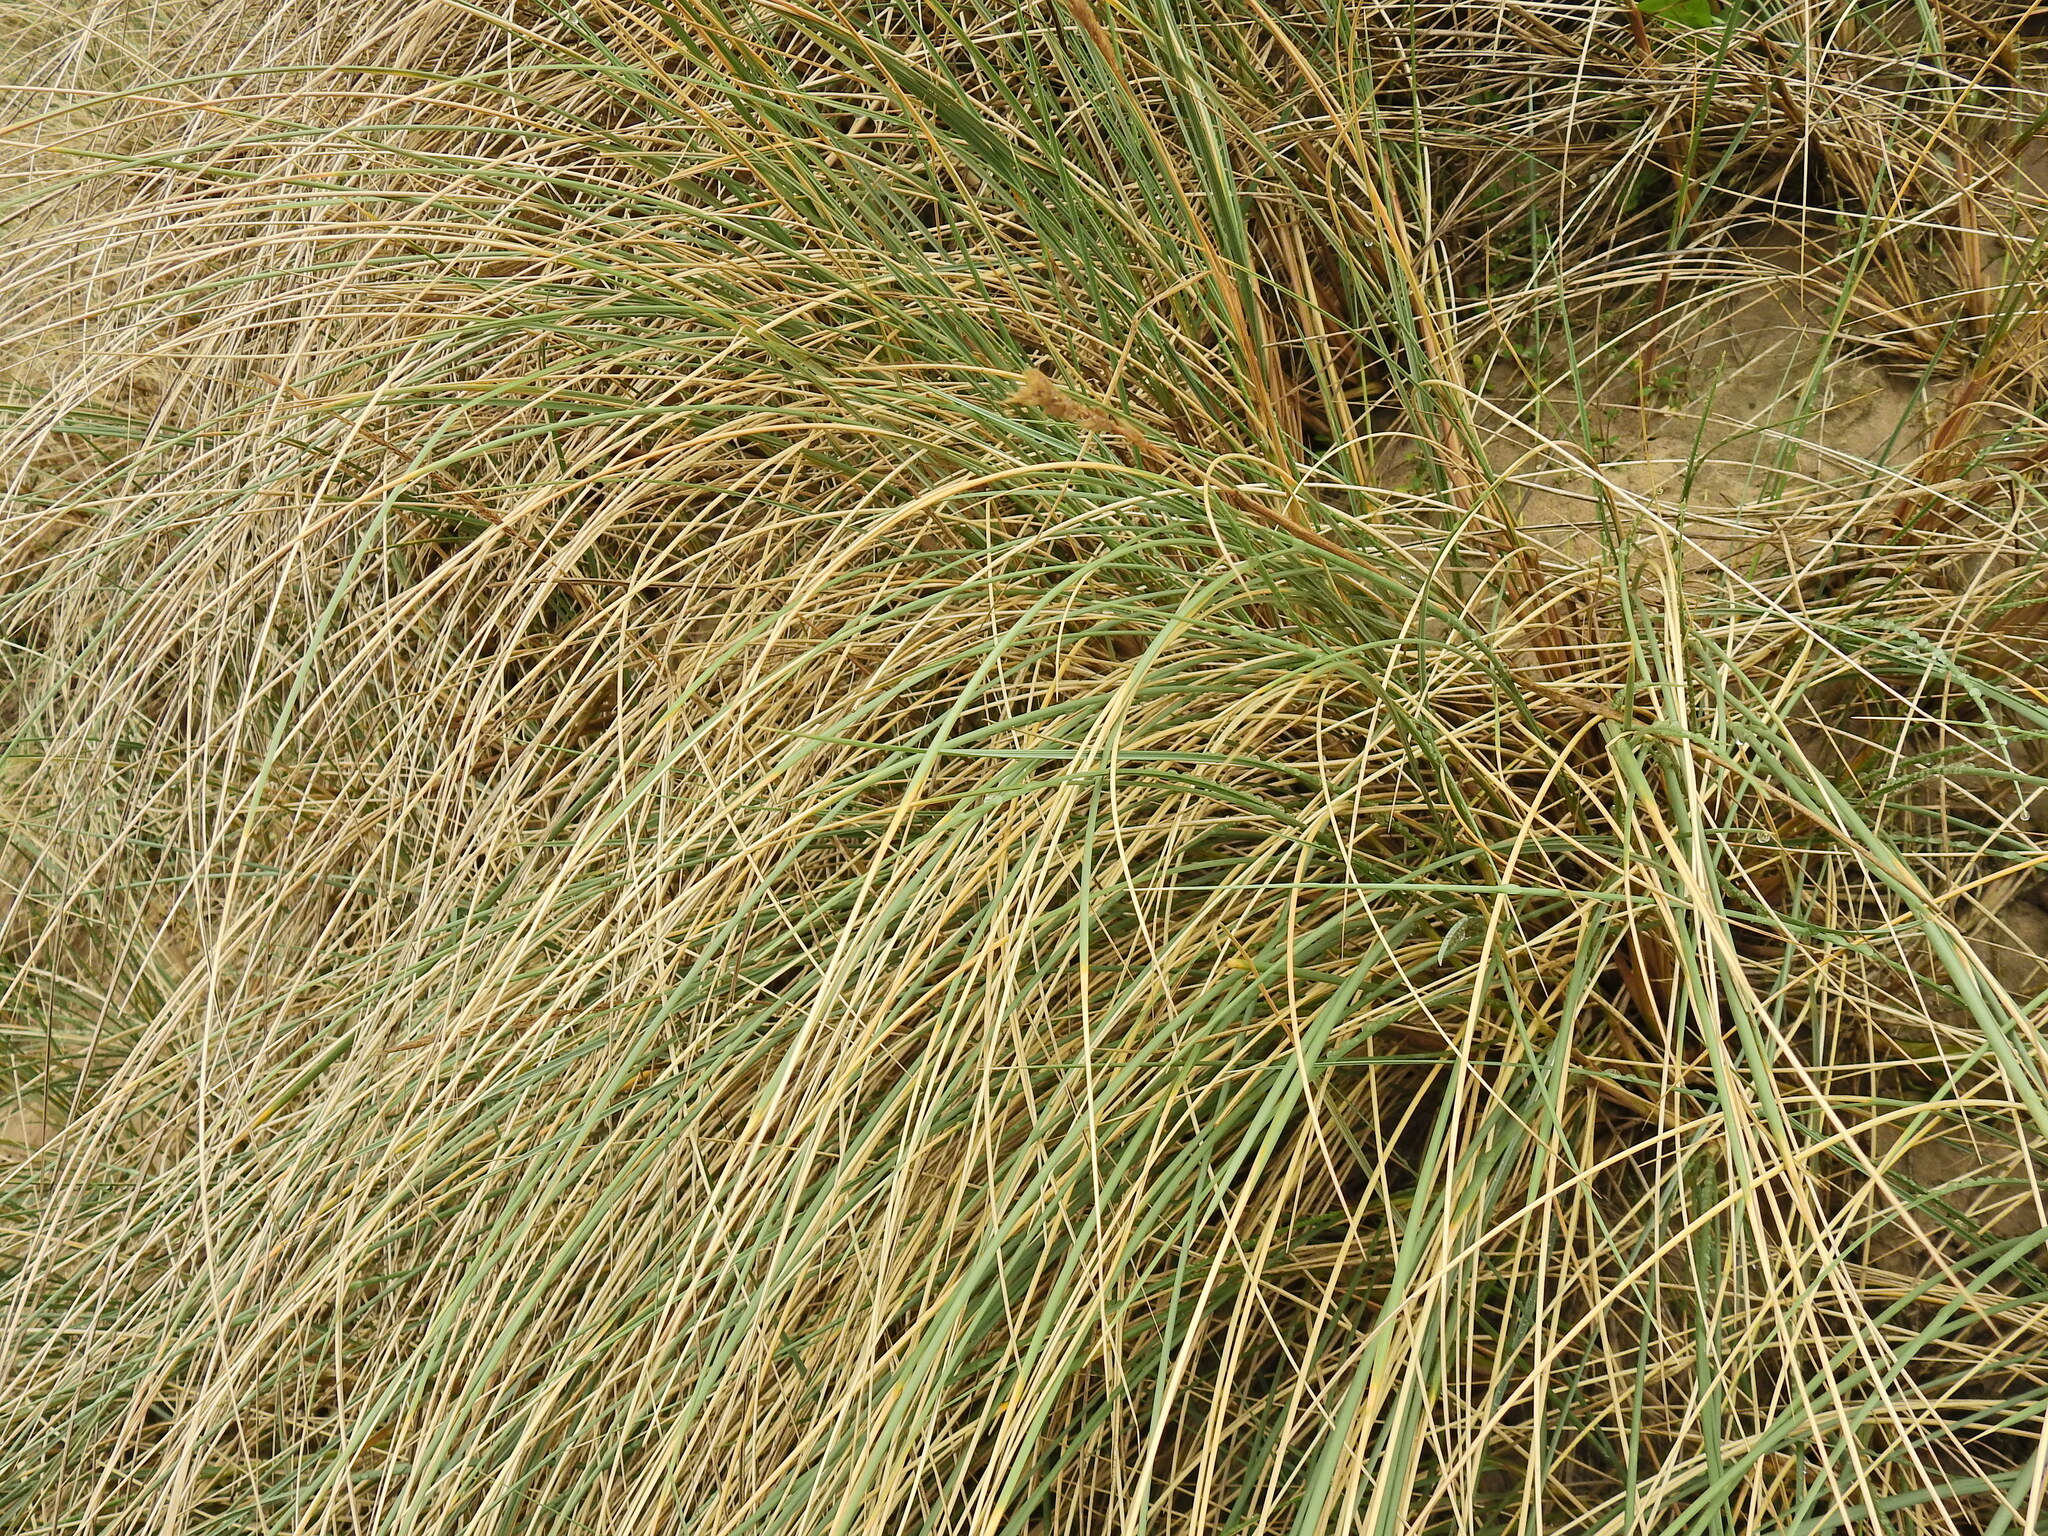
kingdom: Plantae
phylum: Tracheophyta
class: Liliopsida
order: Poales
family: Poaceae
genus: Calamagrostis
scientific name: Calamagrostis arenaria
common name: European beachgrass
